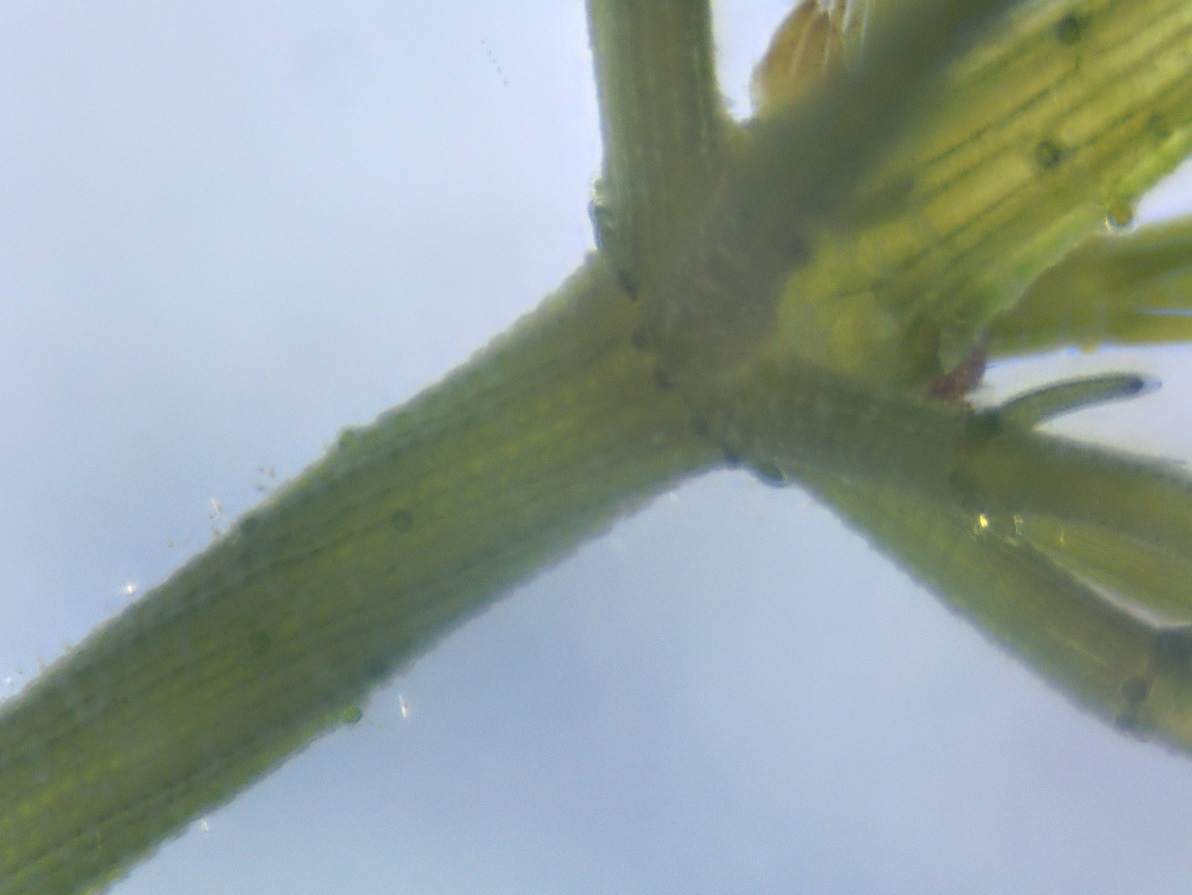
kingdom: Plantae
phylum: Charophyta
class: Charophyceae
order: Charales
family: Characeae
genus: Chara
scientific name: Chara contraria
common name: Opposite stonewort
